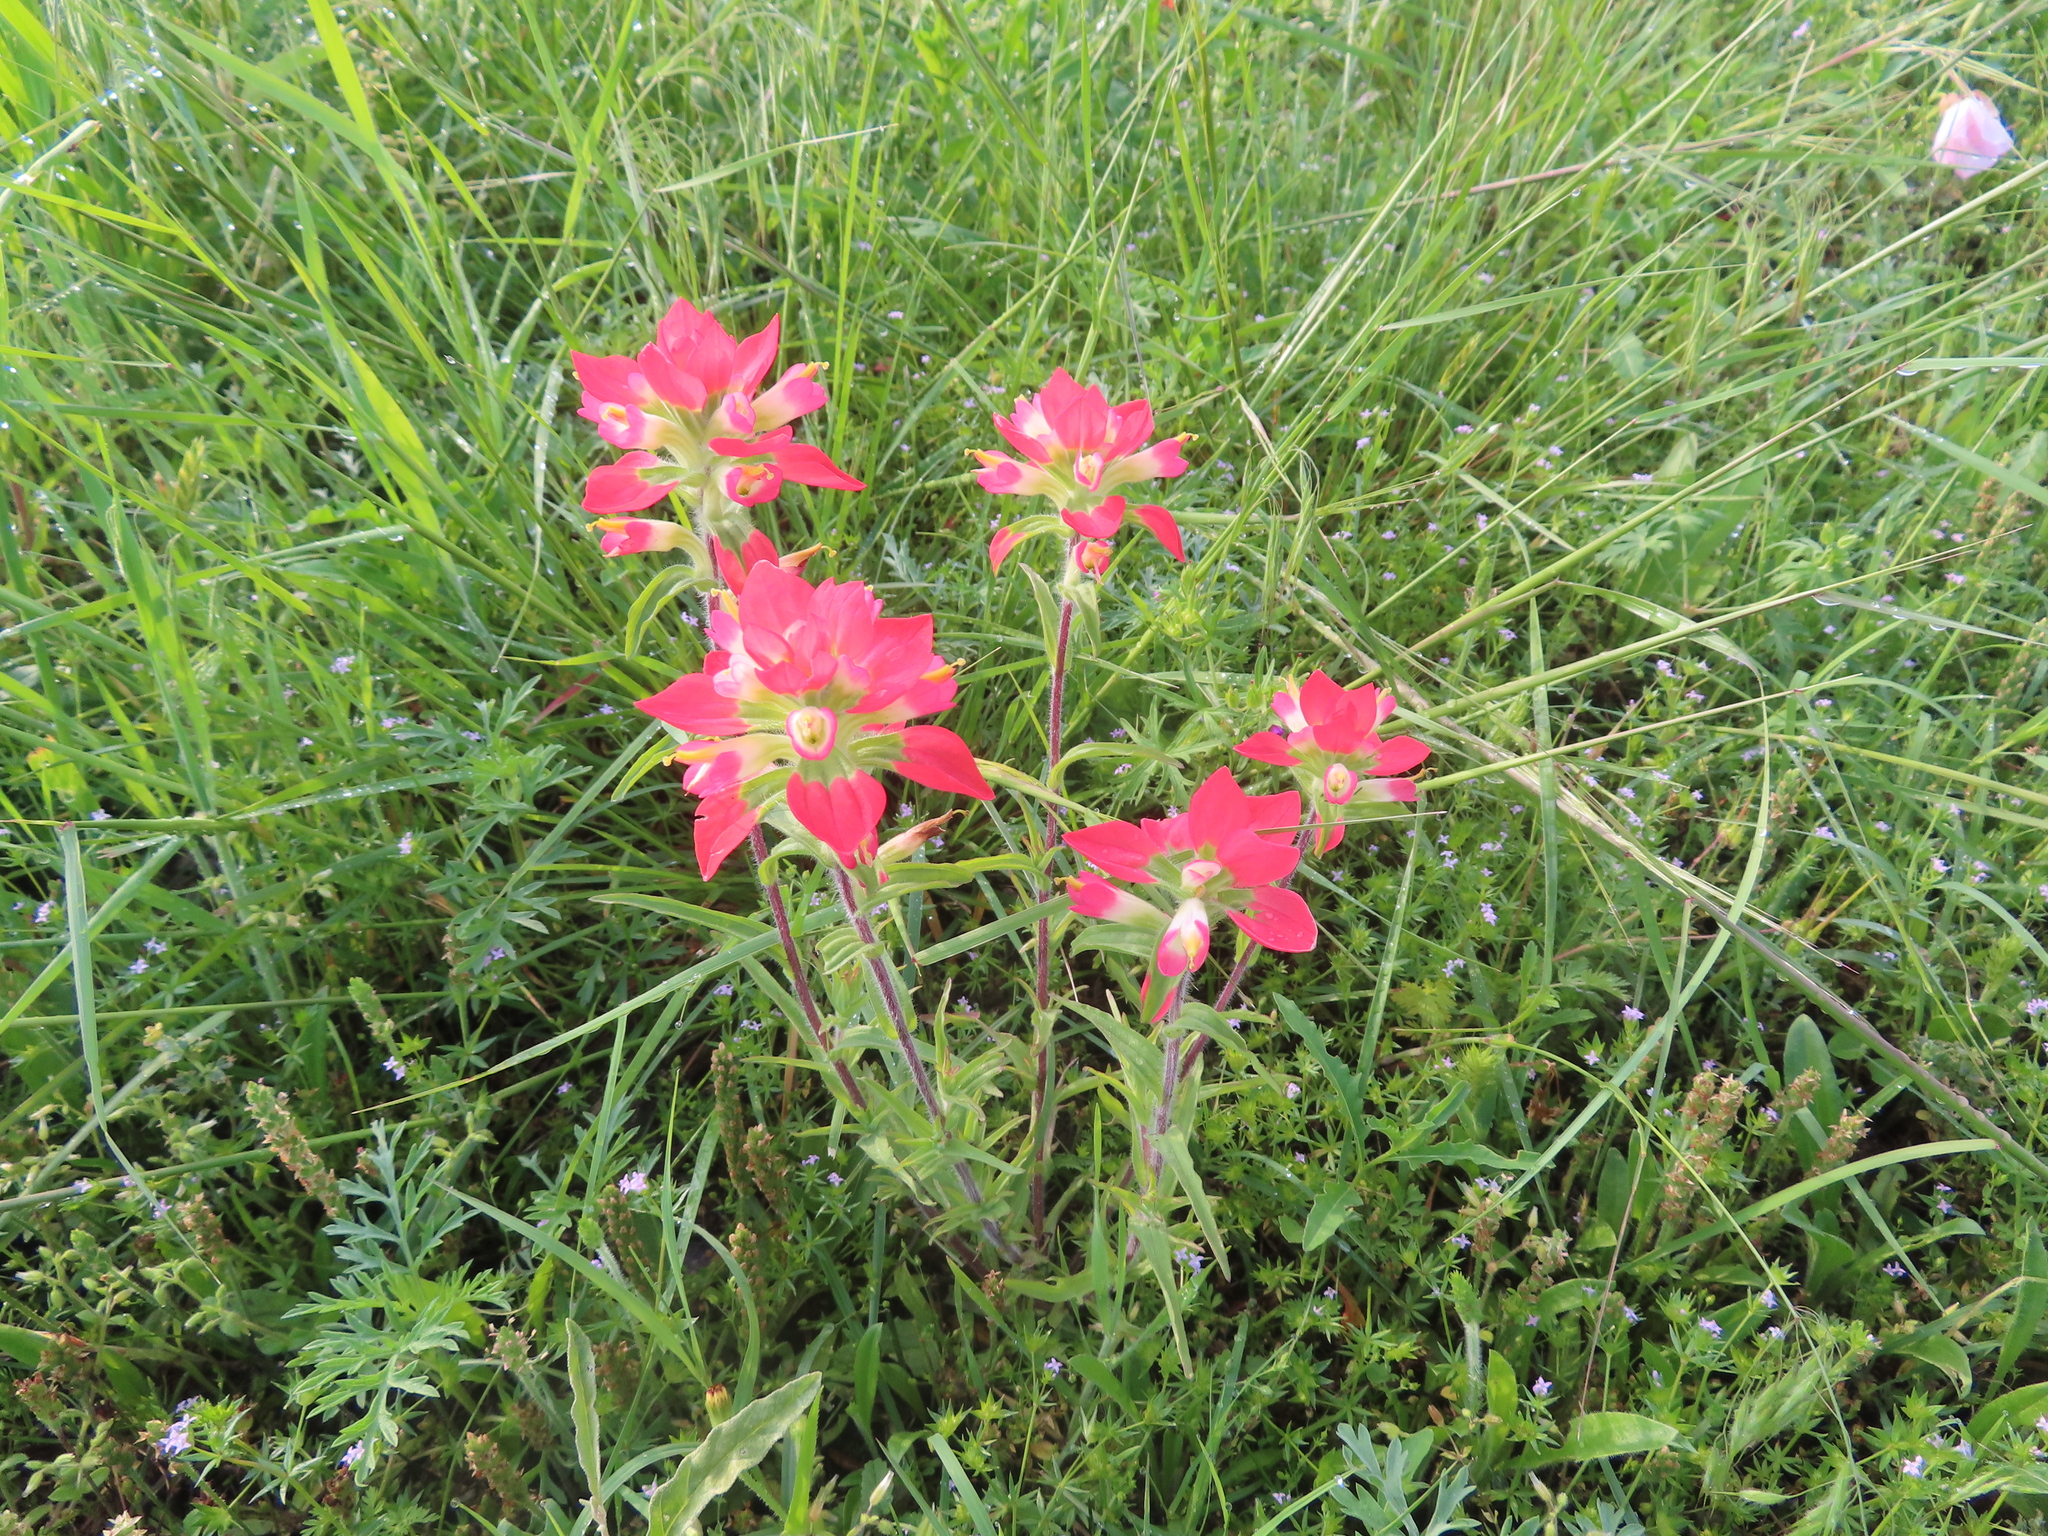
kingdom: Plantae
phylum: Tracheophyta
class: Magnoliopsida
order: Lamiales
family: Orobanchaceae
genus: Castilleja
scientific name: Castilleja indivisa
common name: Texas paintbrush
